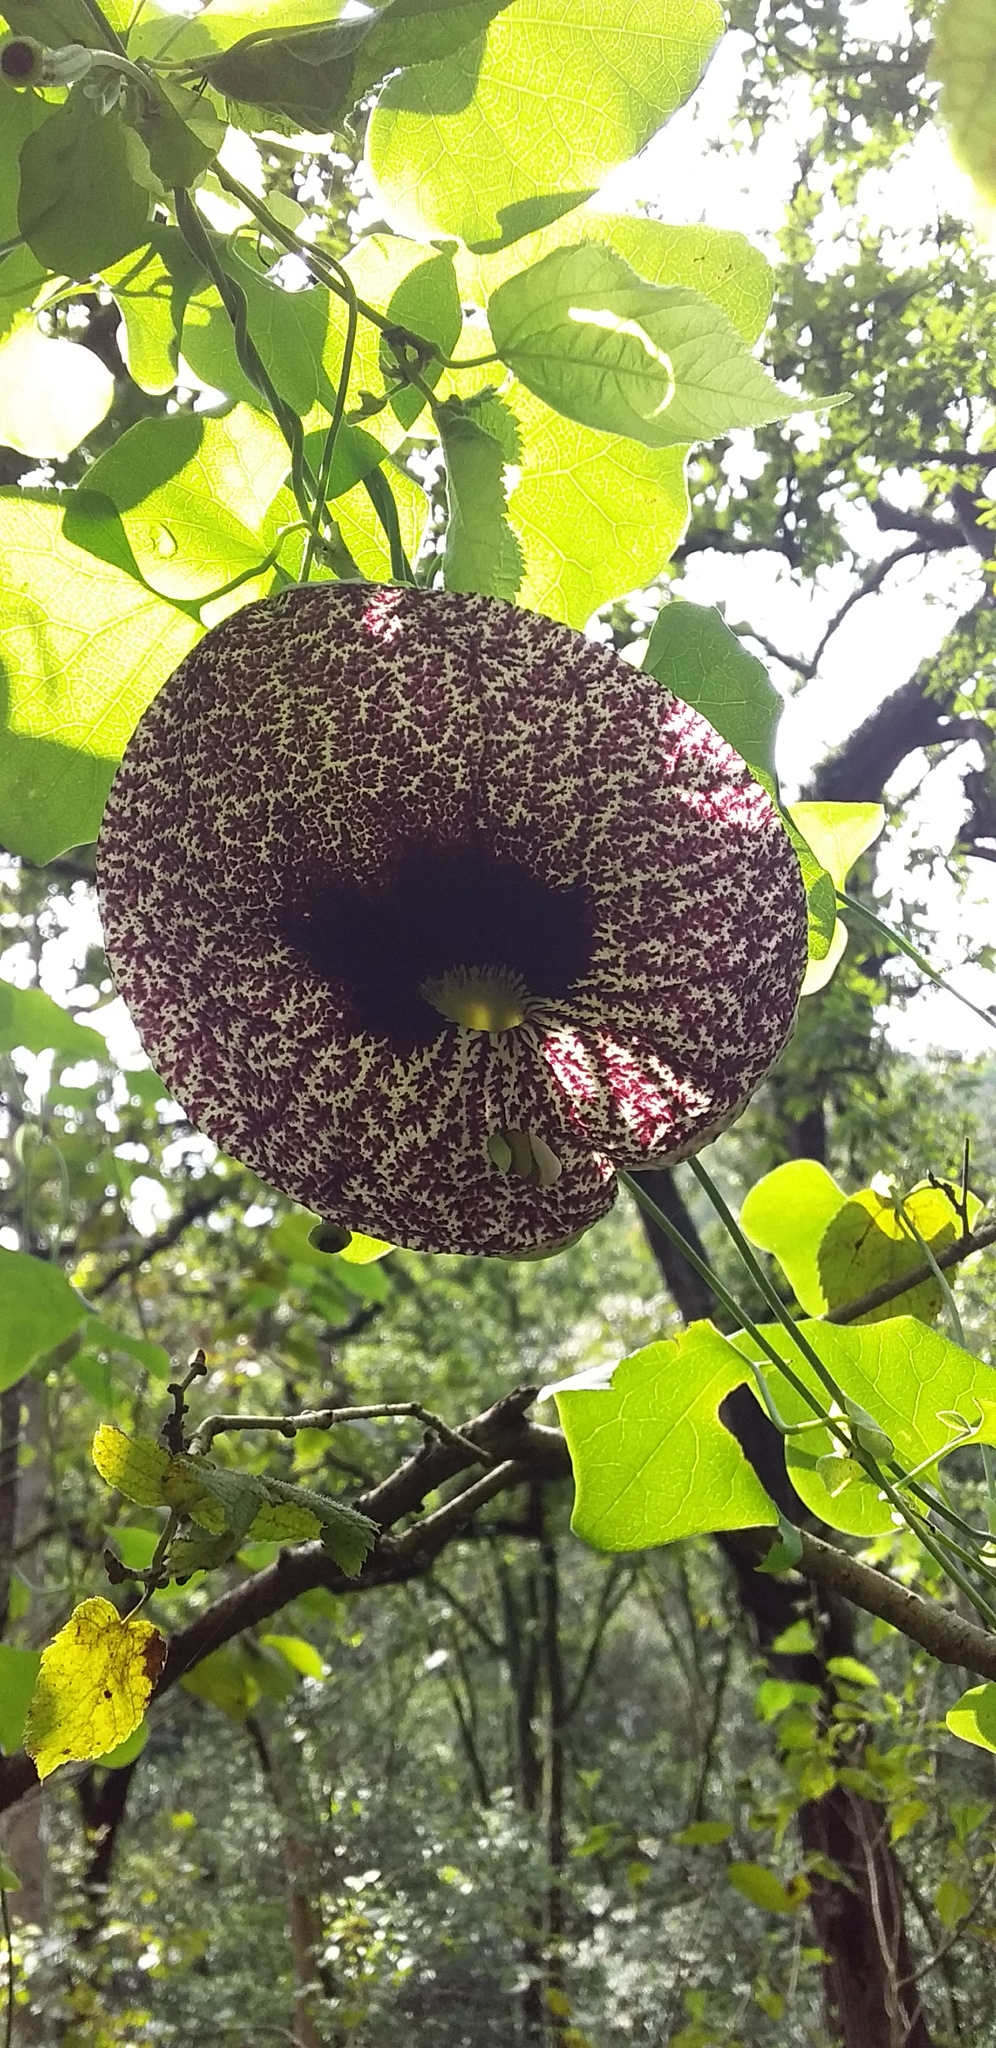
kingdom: Plantae
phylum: Tracheophyta
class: Magnoliopsida
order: Piperales
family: Aristolochiaceae
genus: Aristolochia
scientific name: Aristolochia littoralis
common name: Duck
